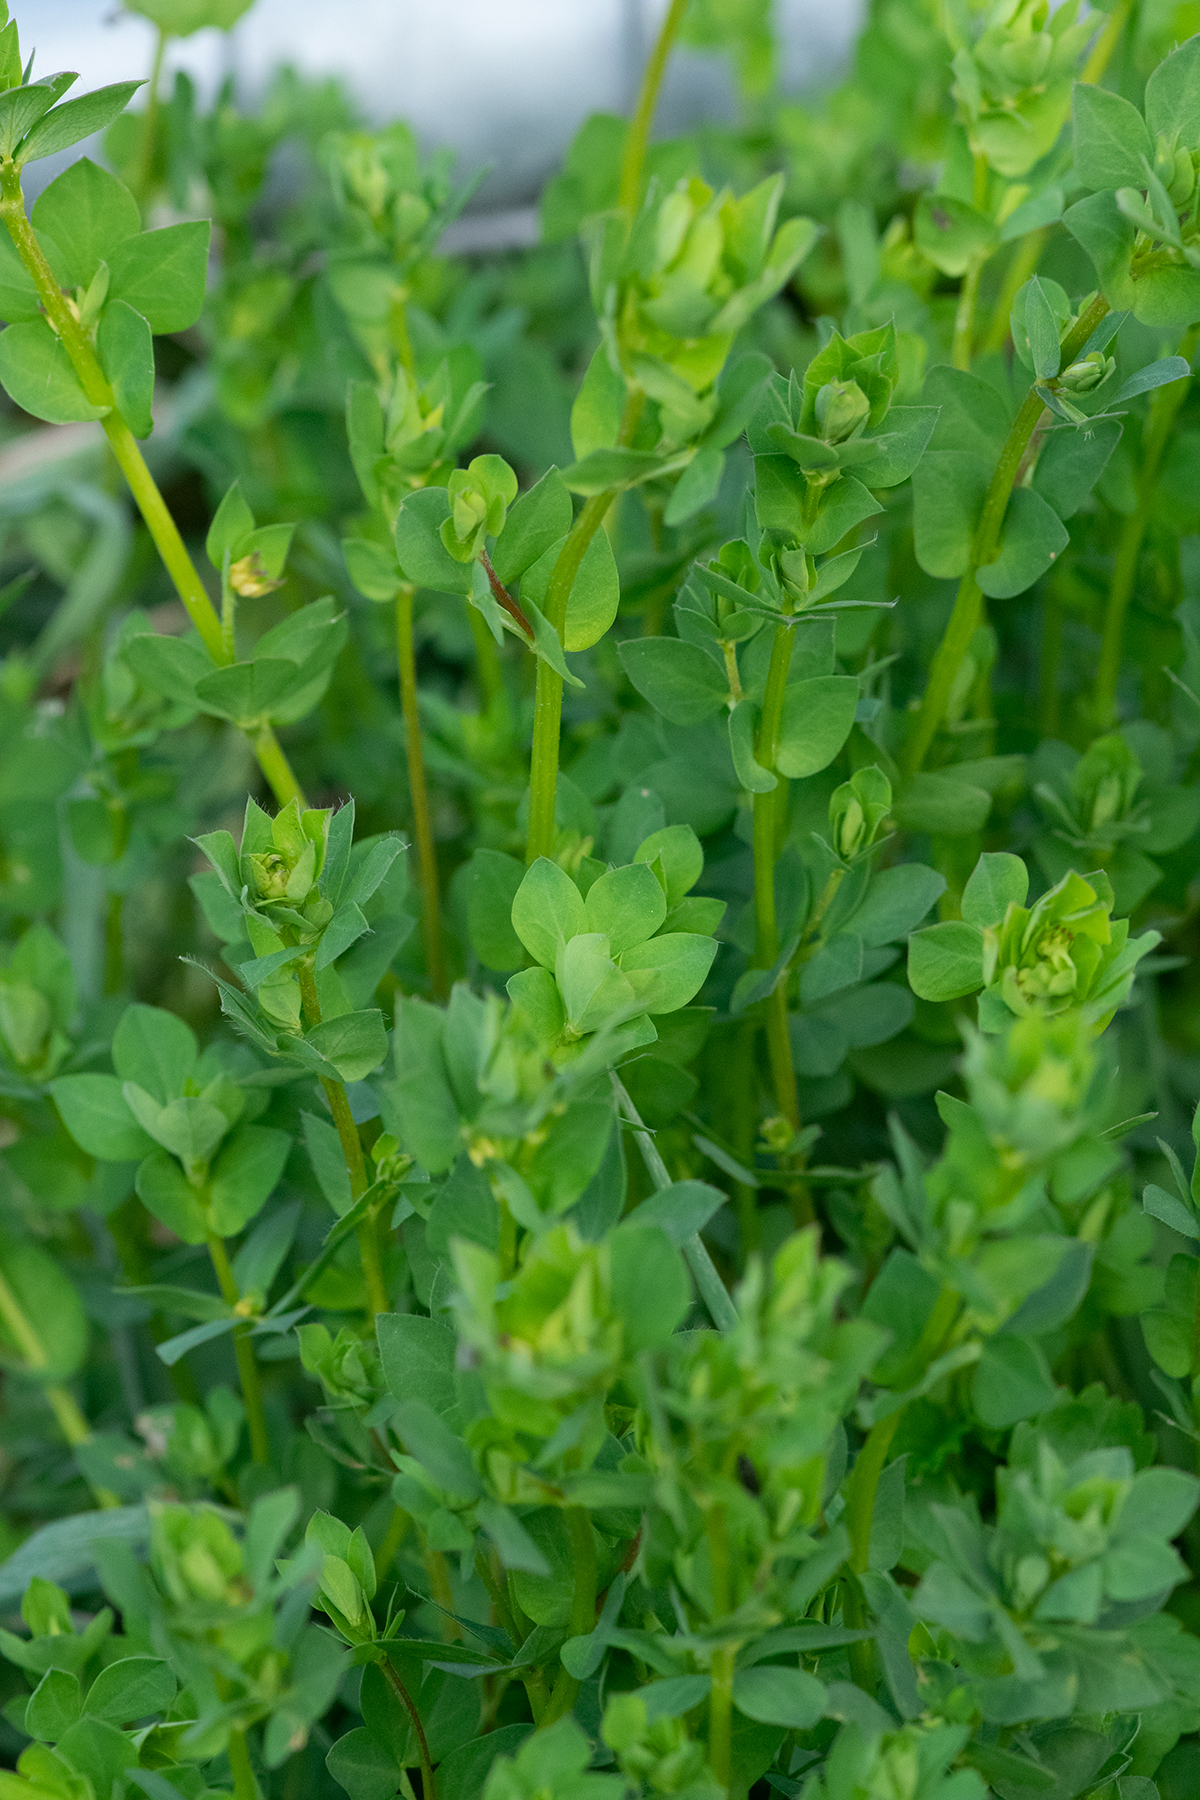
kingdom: Plantae
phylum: Tracheophyta
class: Magnoliopsida
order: Fabales
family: Fabaceae
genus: Lotus
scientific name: Lotus corniculatus
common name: Common bird's-foot-trefoil
